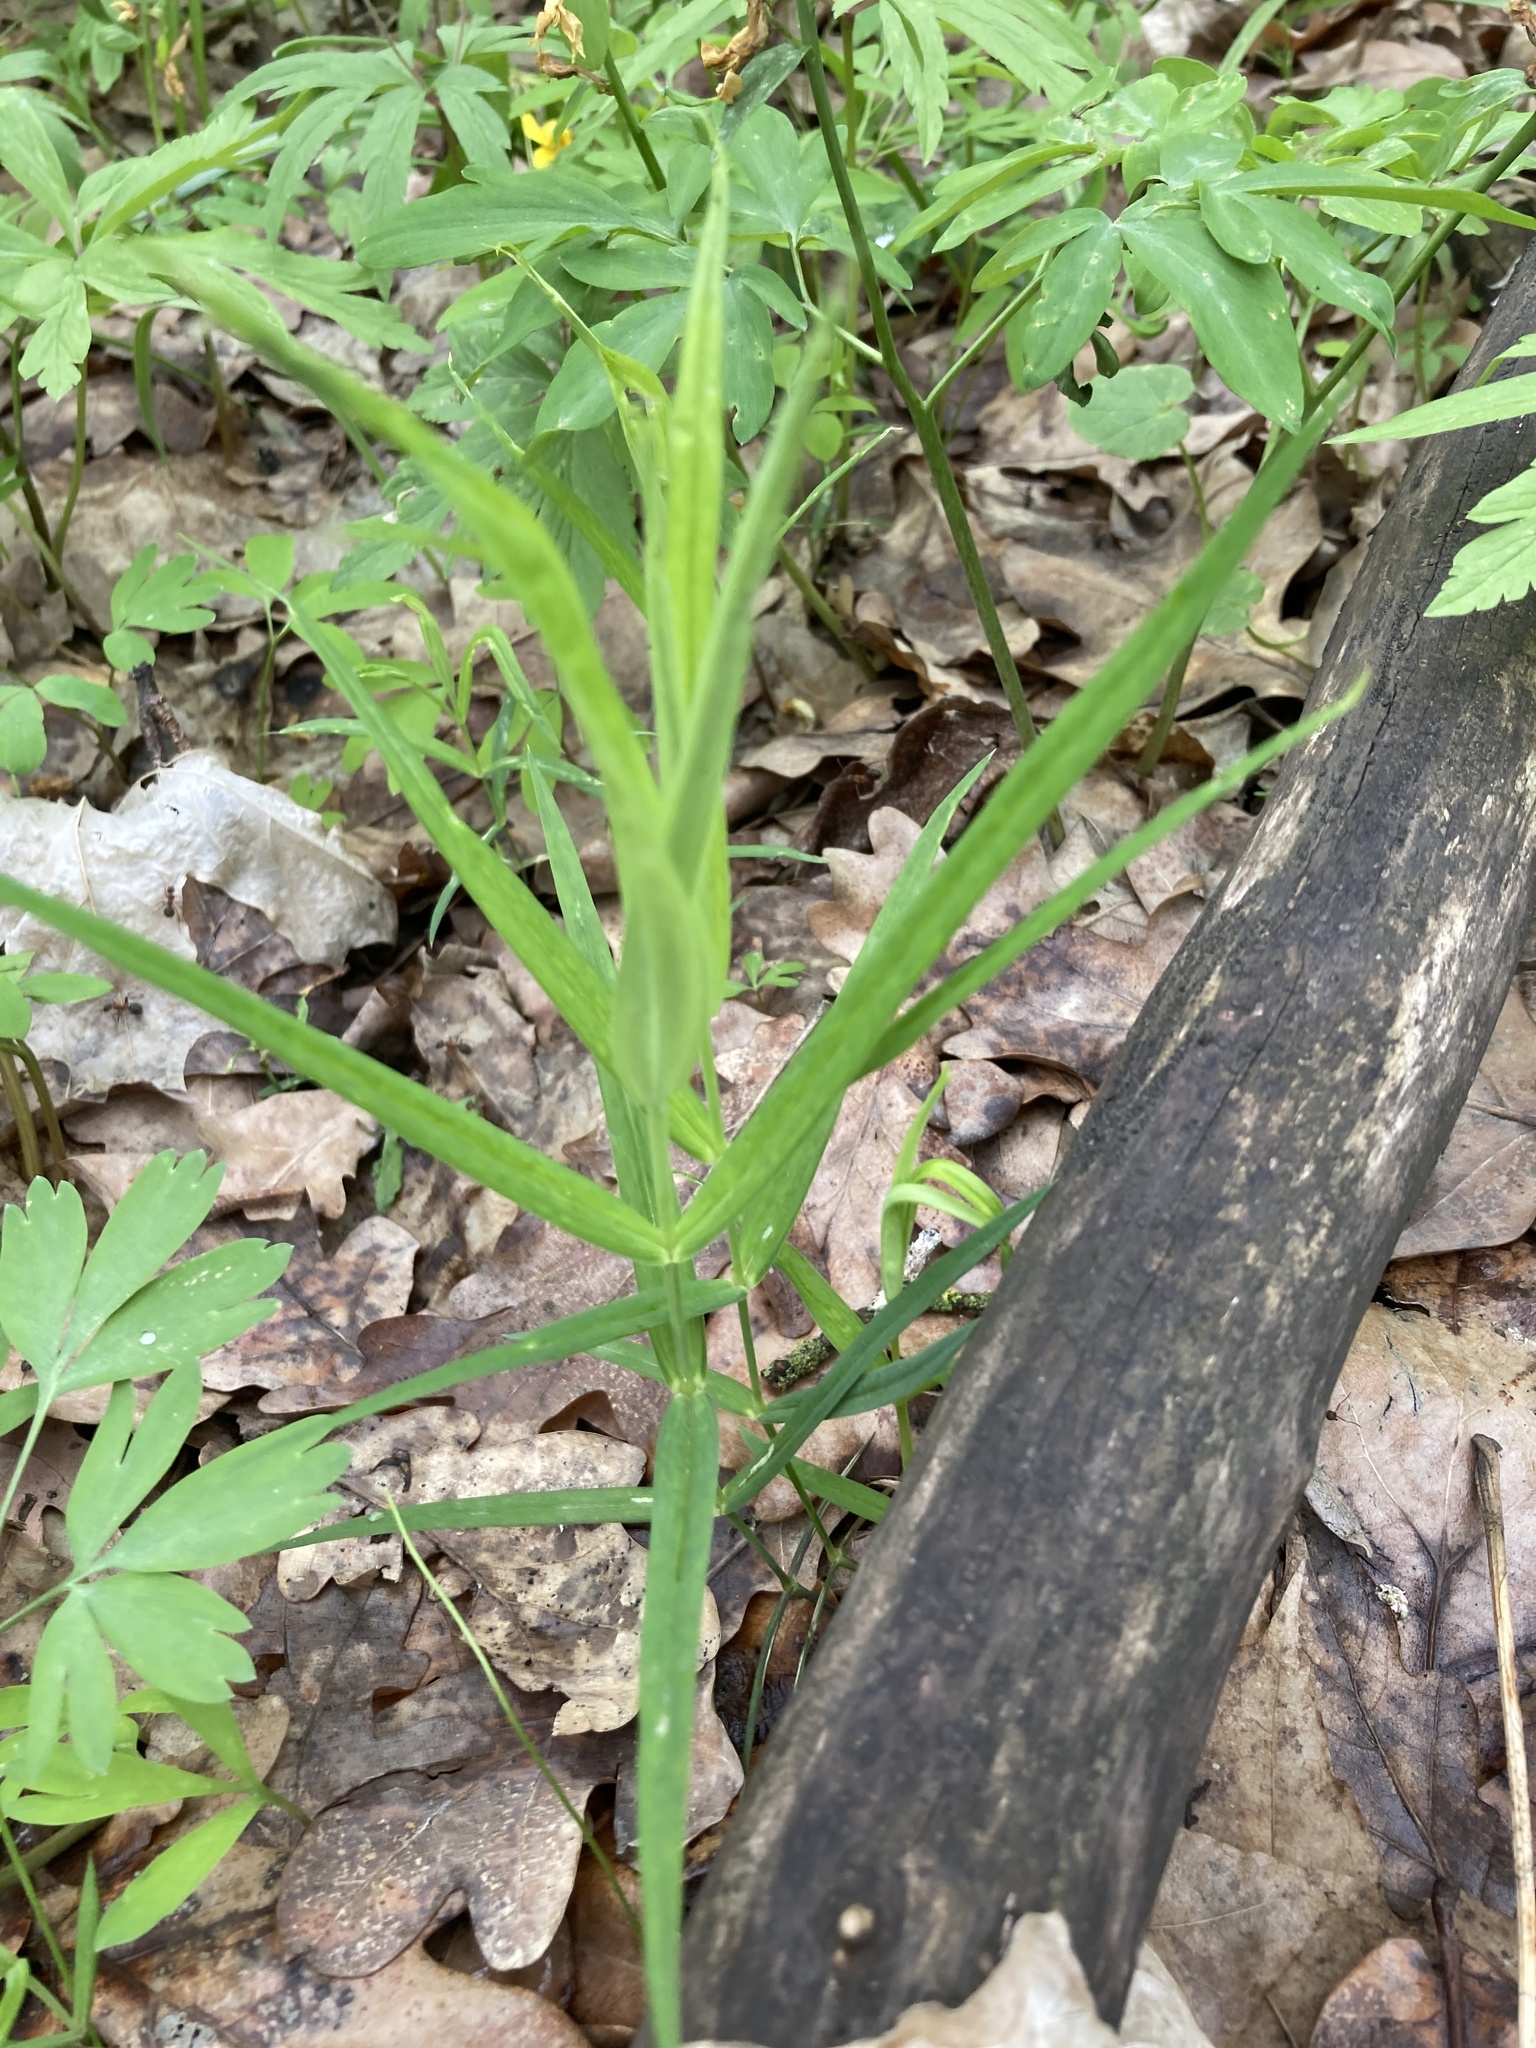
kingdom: Plantae
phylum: Tracheophyta
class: Magnoliopsida
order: Caryophyllales
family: Caryophyllaceae
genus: Rabelera
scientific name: Rabelera holostea
